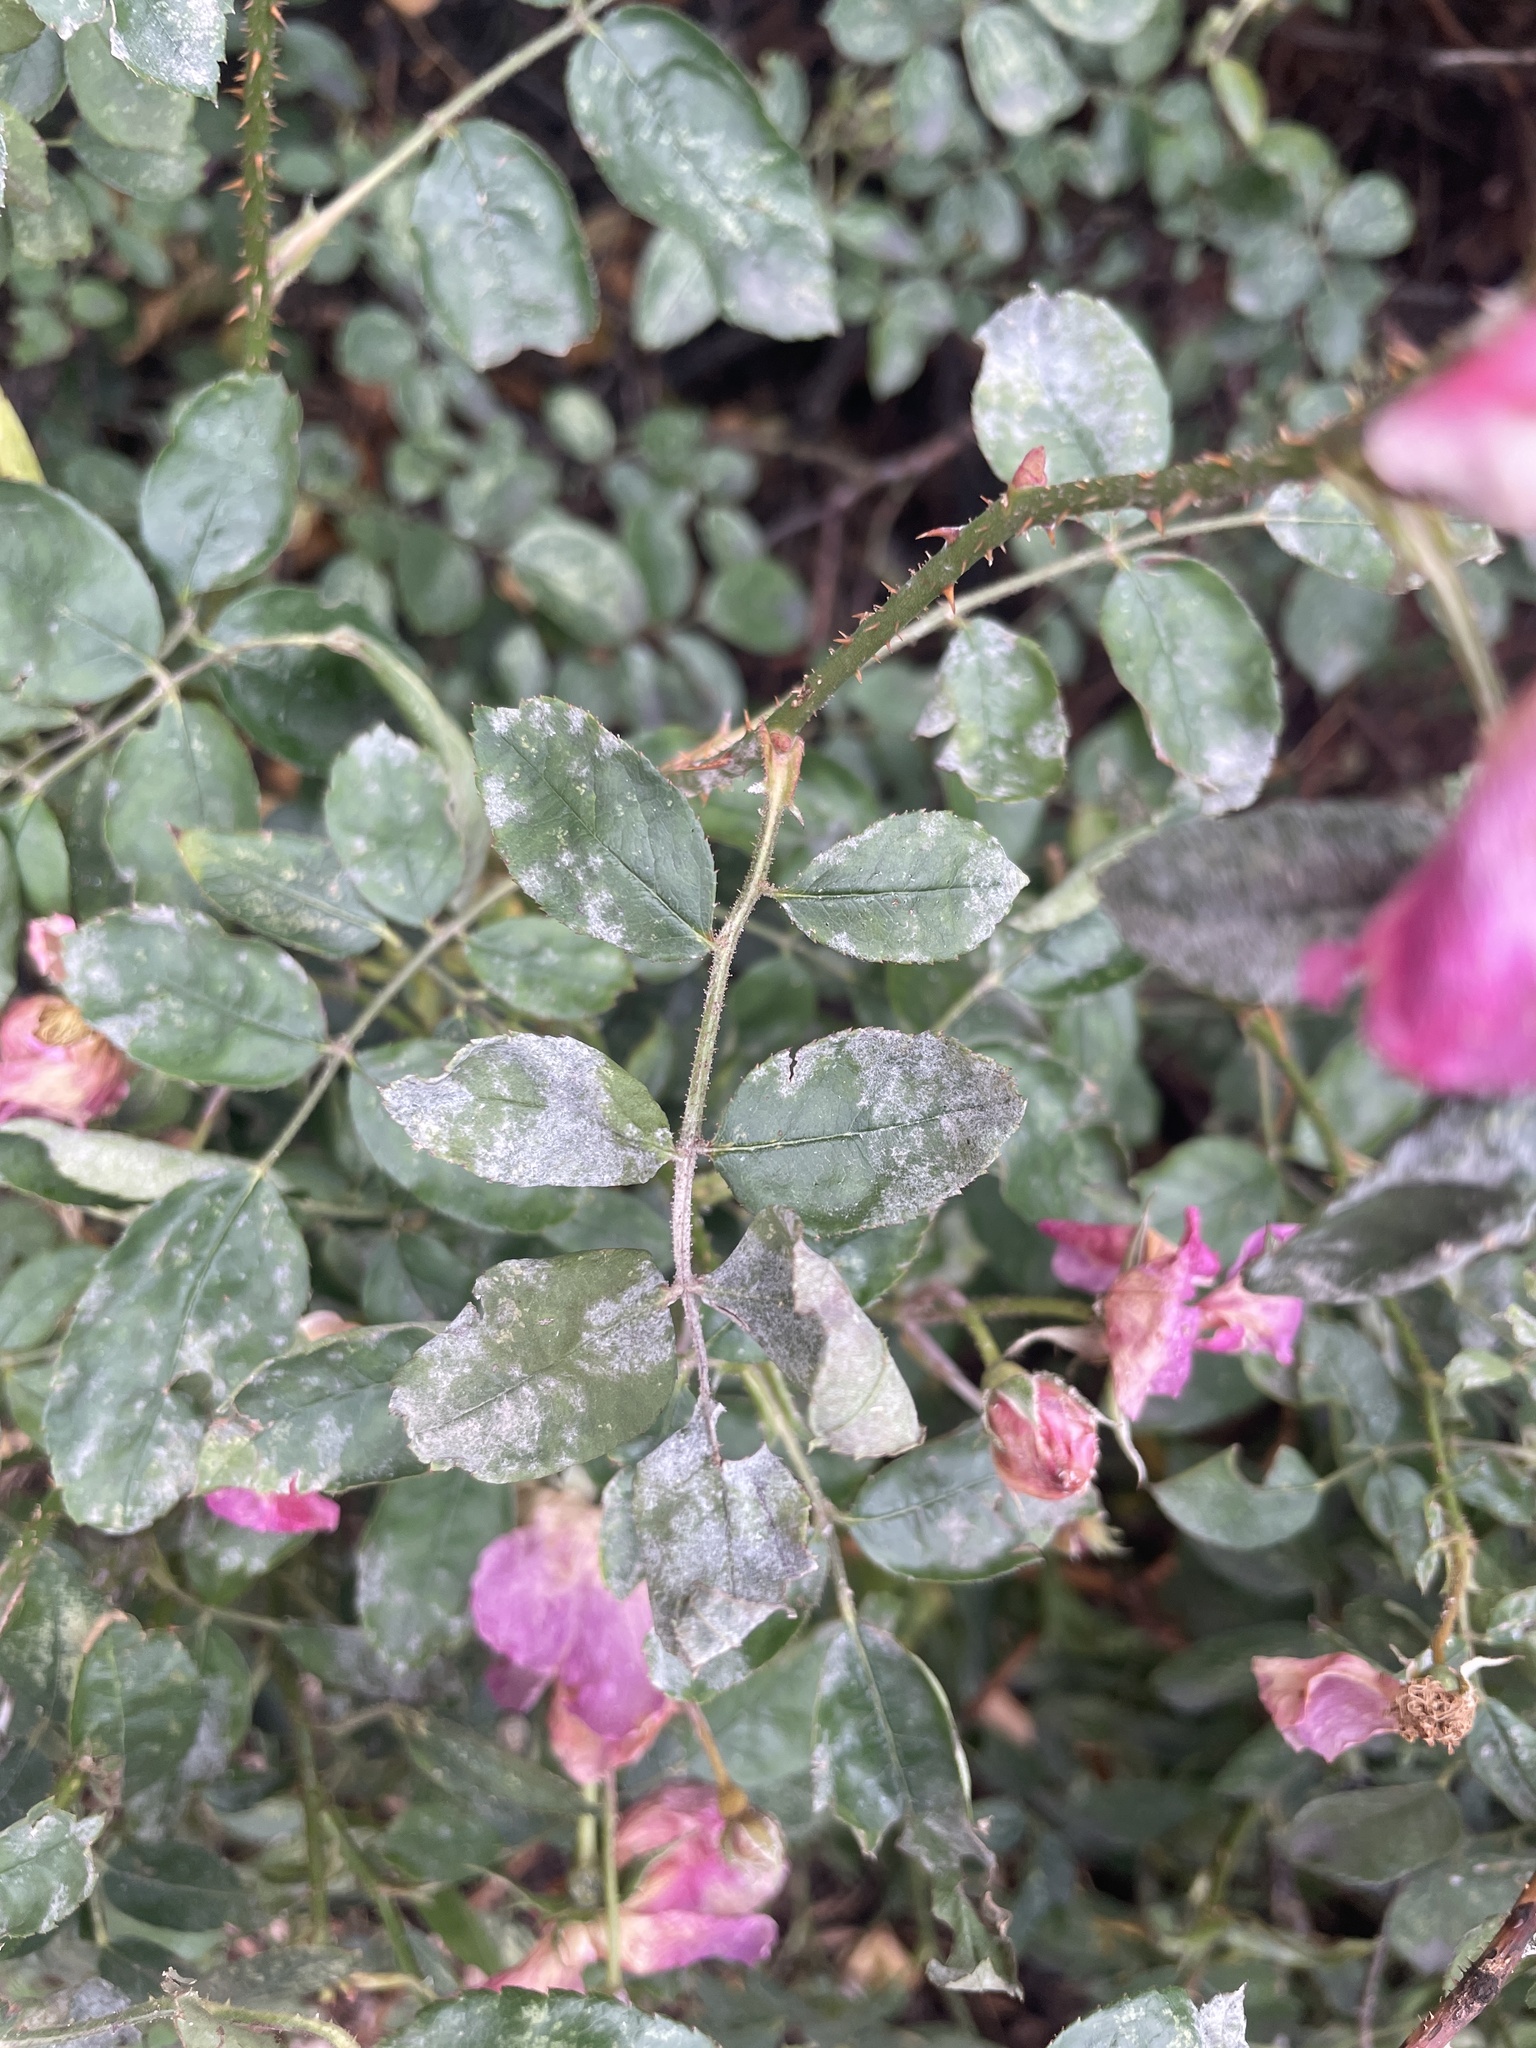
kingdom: Fungi
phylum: Ascomycota
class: Leotiomycetes
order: Helotiales
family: Erysiphaceae
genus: Podosphaera
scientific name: Podosphaera pannosa
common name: Rose mildew
